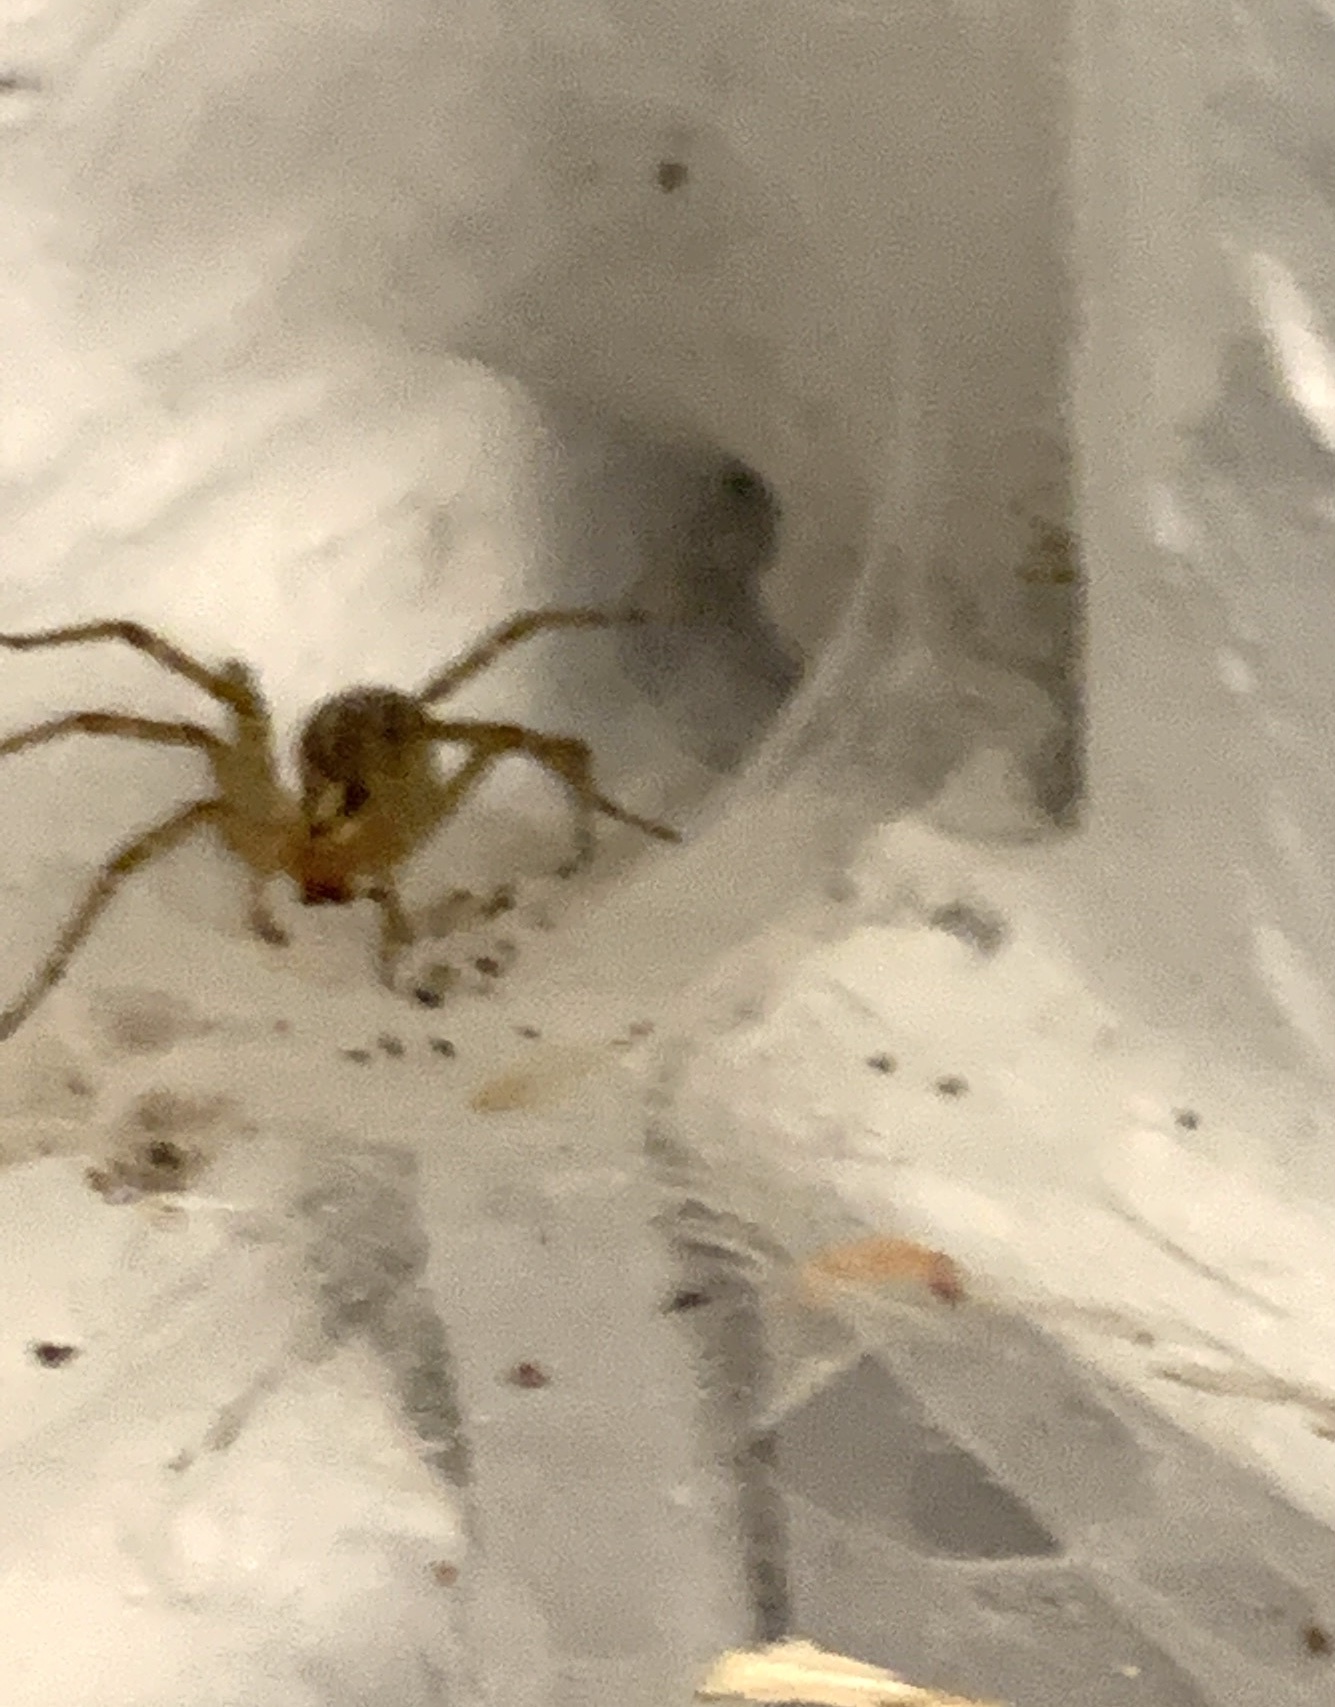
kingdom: Animalia
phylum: Arthropoda
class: Arachnida
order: Araneae
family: Agelenidae
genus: Agelenopsis
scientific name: Agelenopsis
